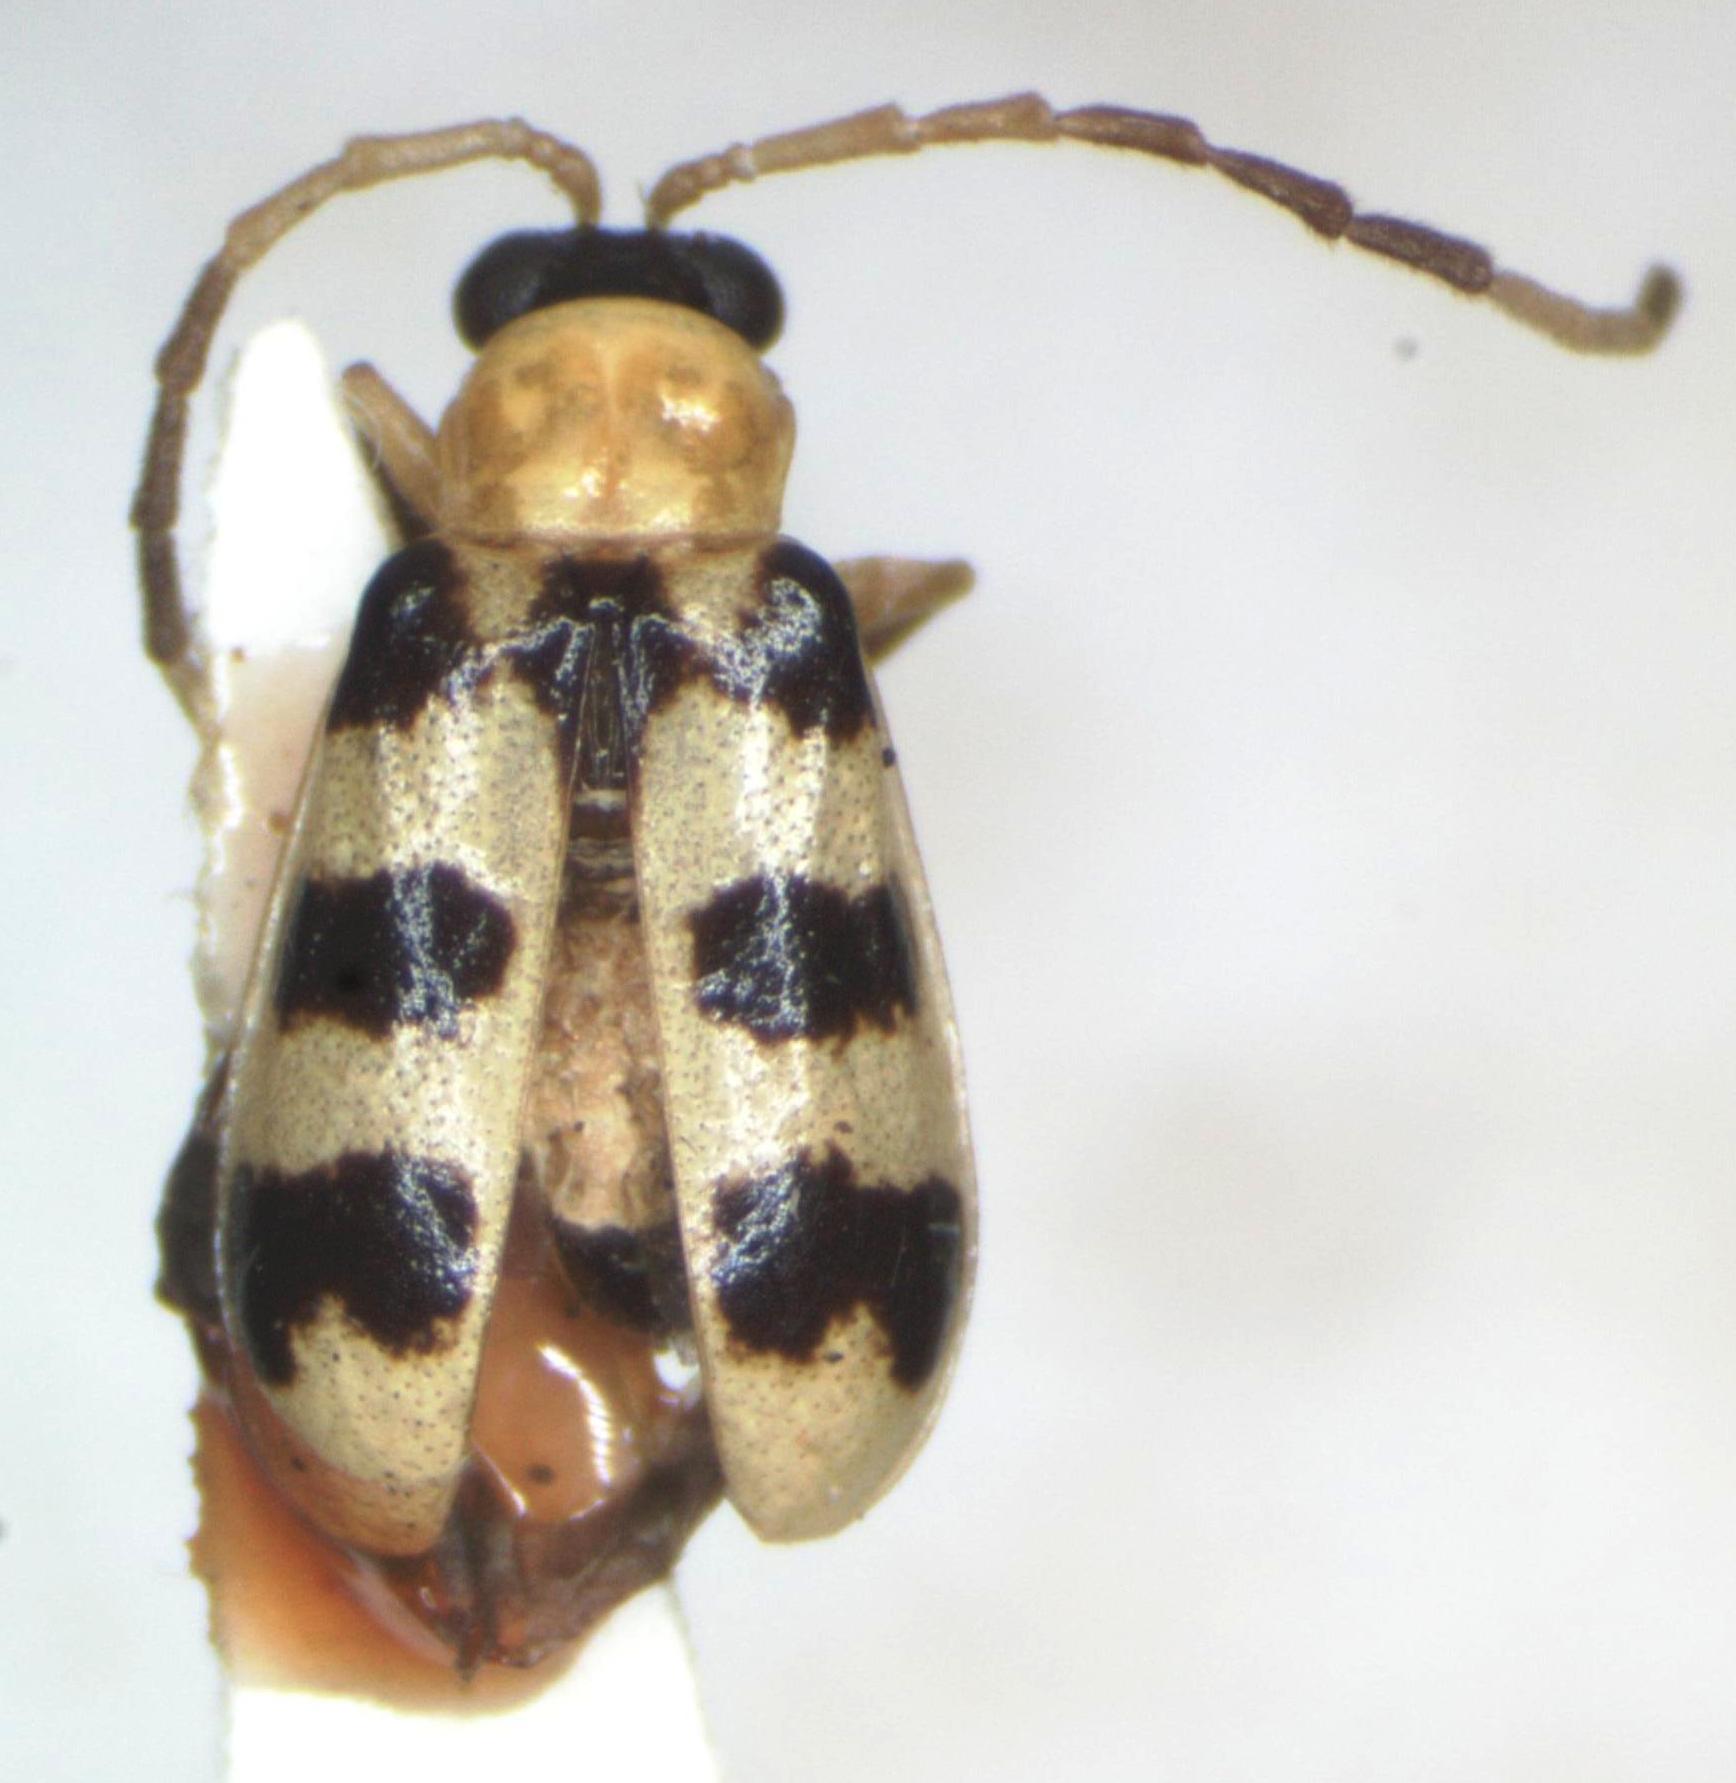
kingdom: Animalia
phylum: Arthropoda
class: Insecta
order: Coleoptera
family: Chrysomelidae
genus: Diabrotica
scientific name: Diabrotica
